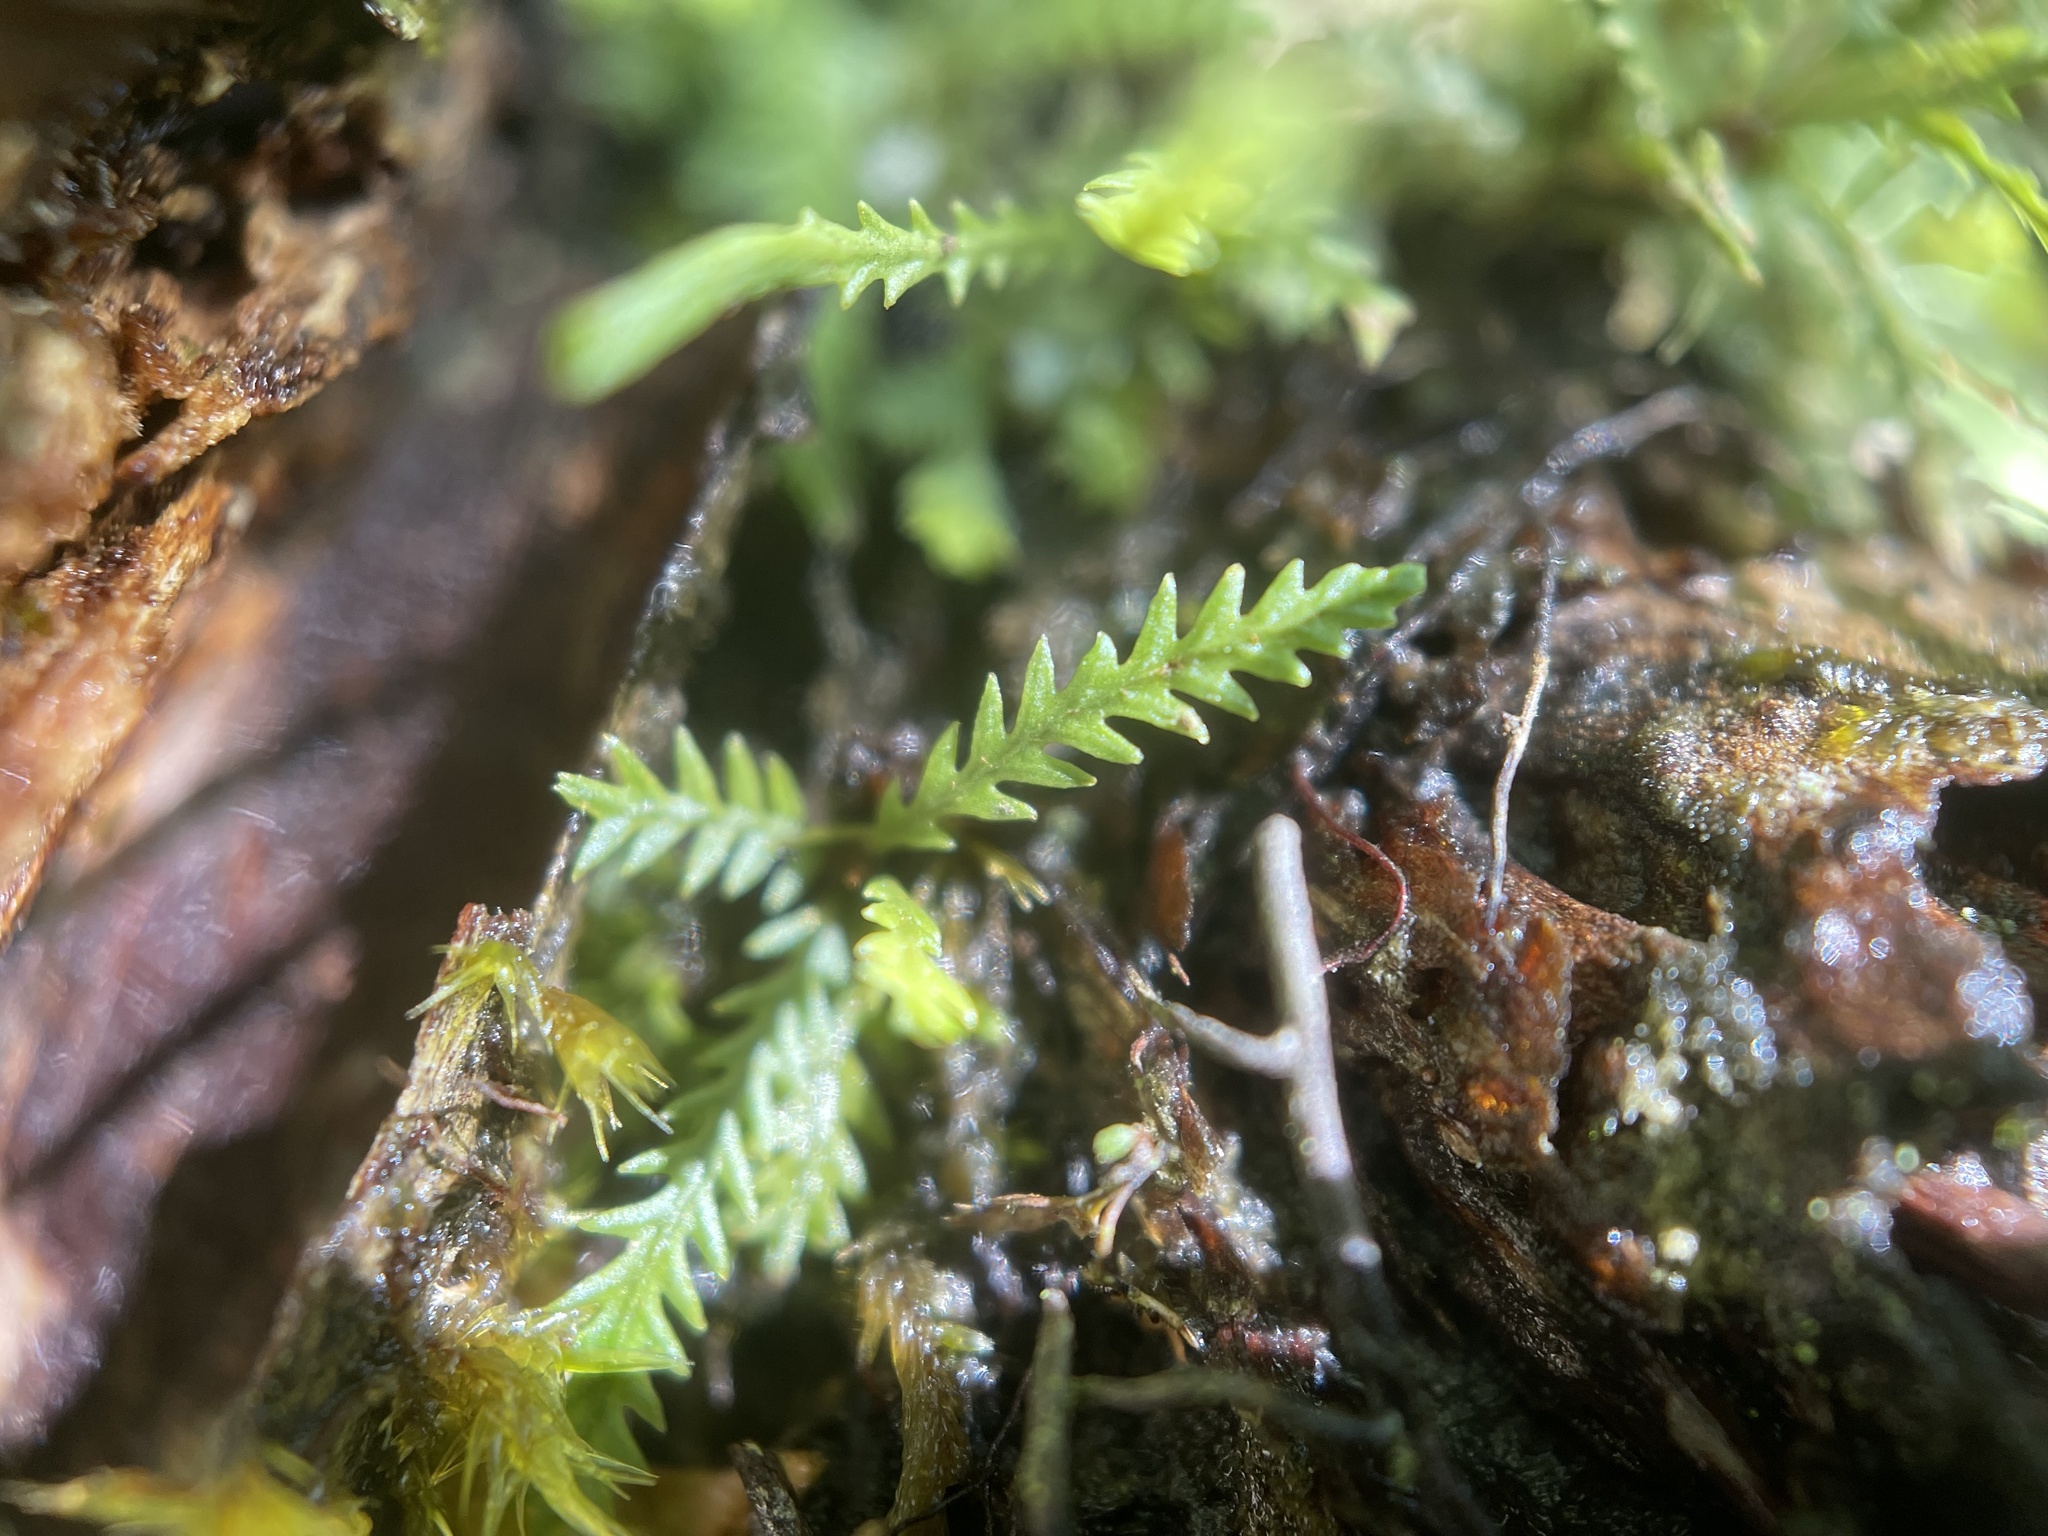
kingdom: Plantae
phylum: Tracheophyta
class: Polypodiopsida
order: Polypodiales
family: Polypodiaceae
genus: Cochlidium
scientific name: Cochlidium serrulatum
